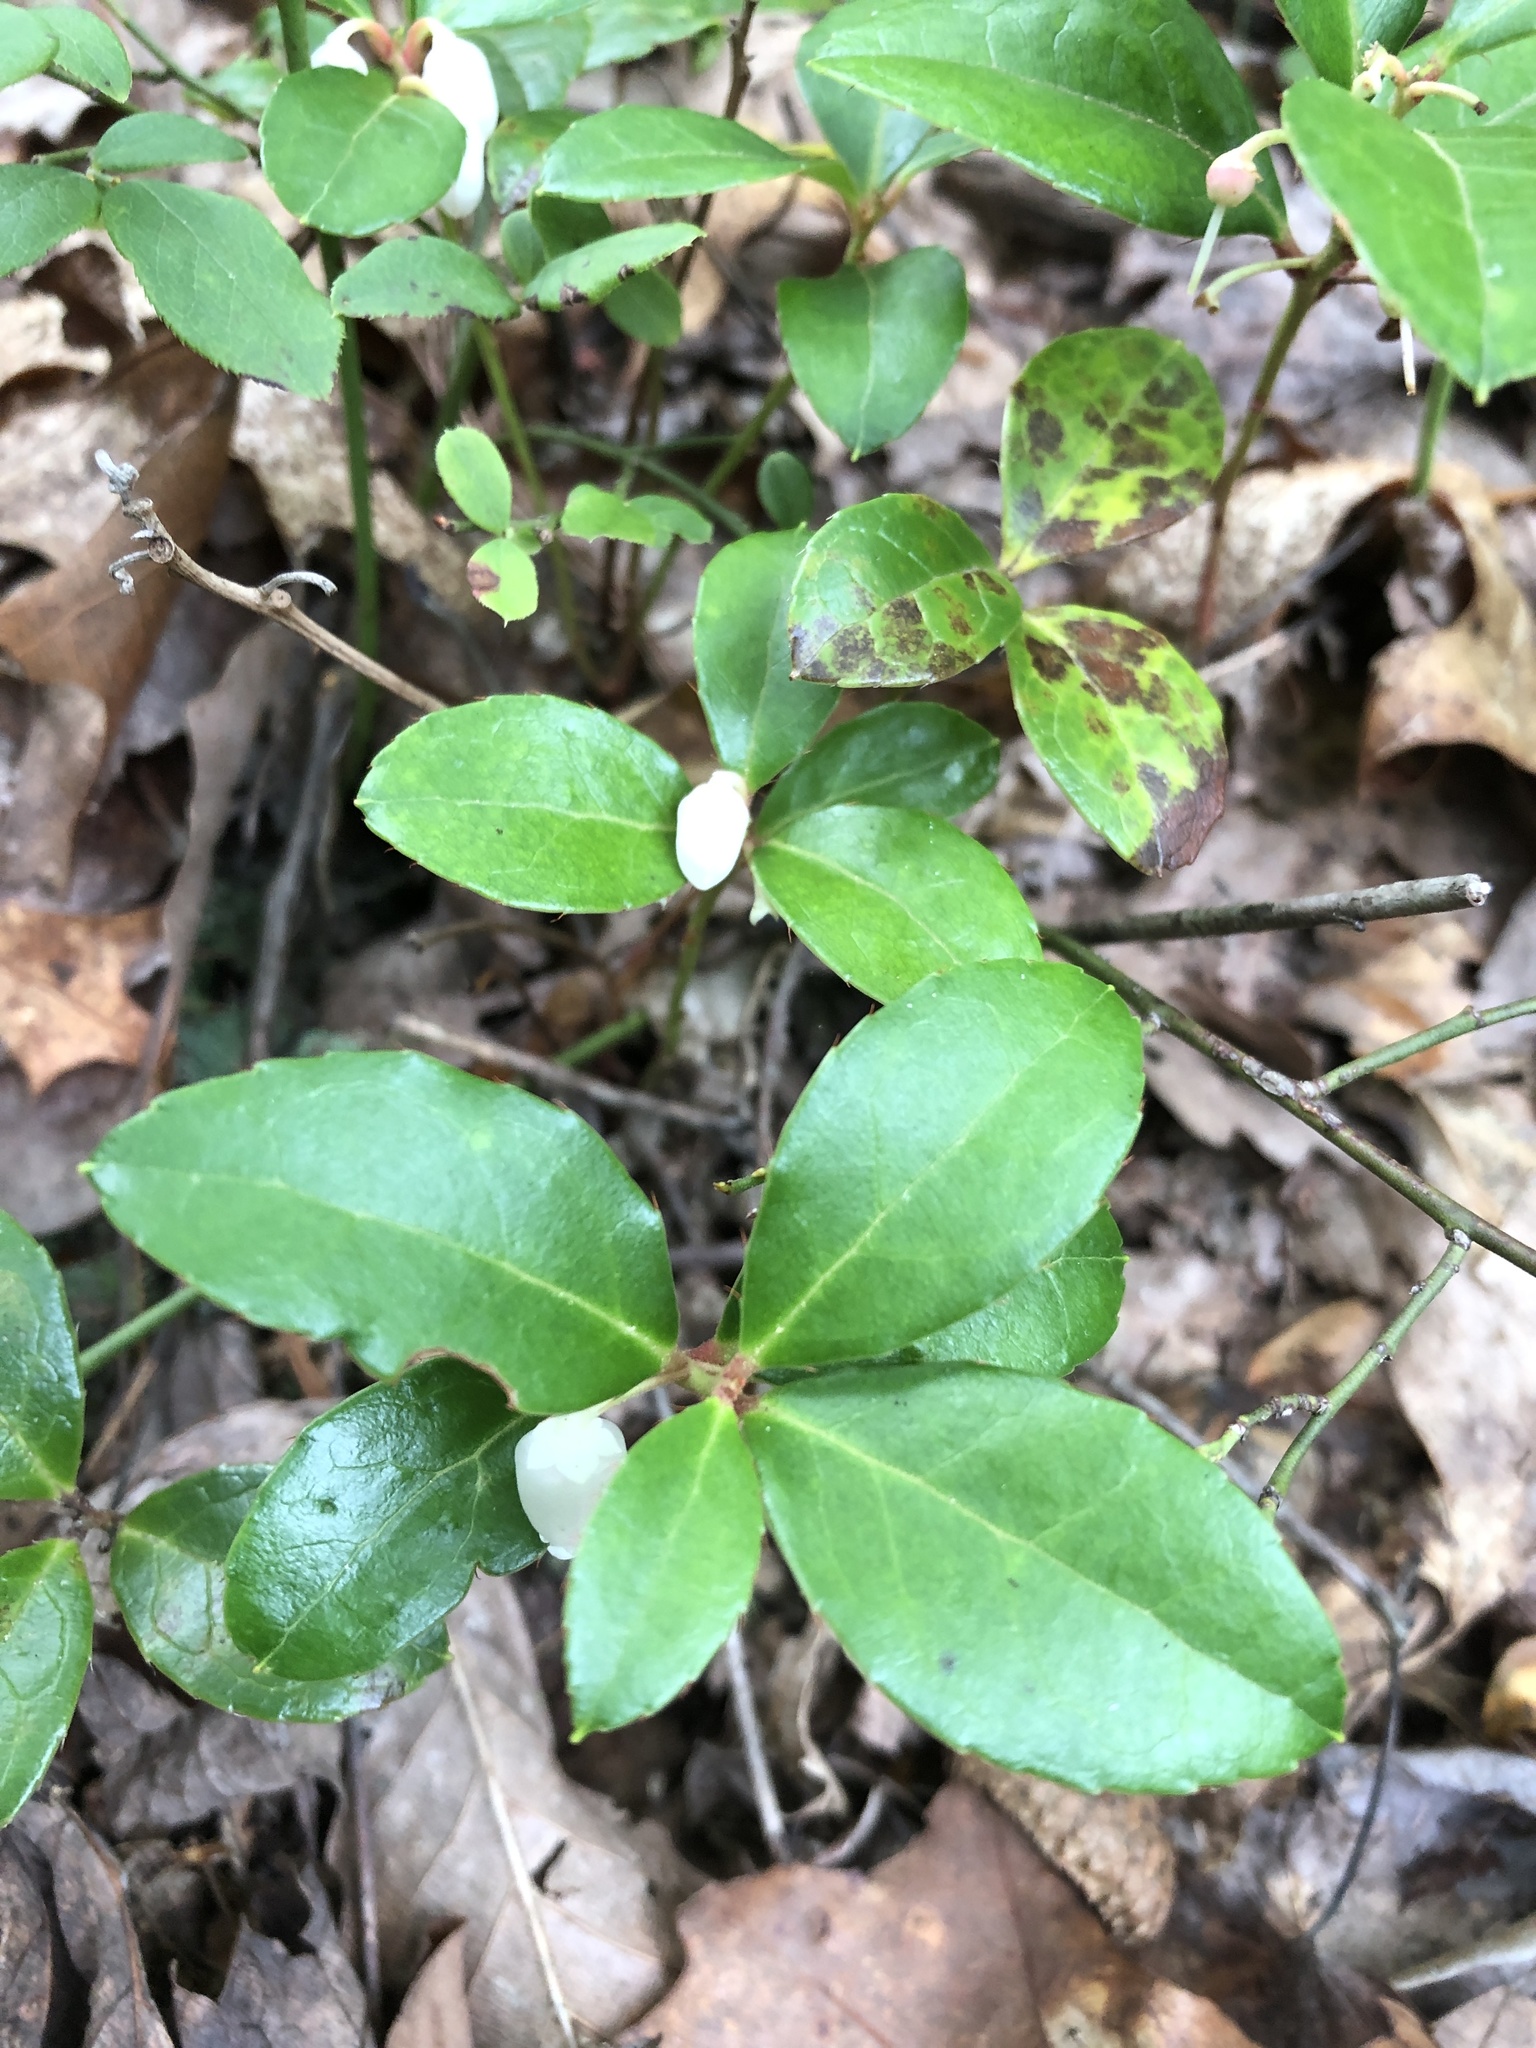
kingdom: Plantae
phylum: Tracheophyta
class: Magnoliopsida
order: Ericales
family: Ericaceae
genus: Gaultheria
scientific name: Gaultheria procumbens
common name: Checkerberry
